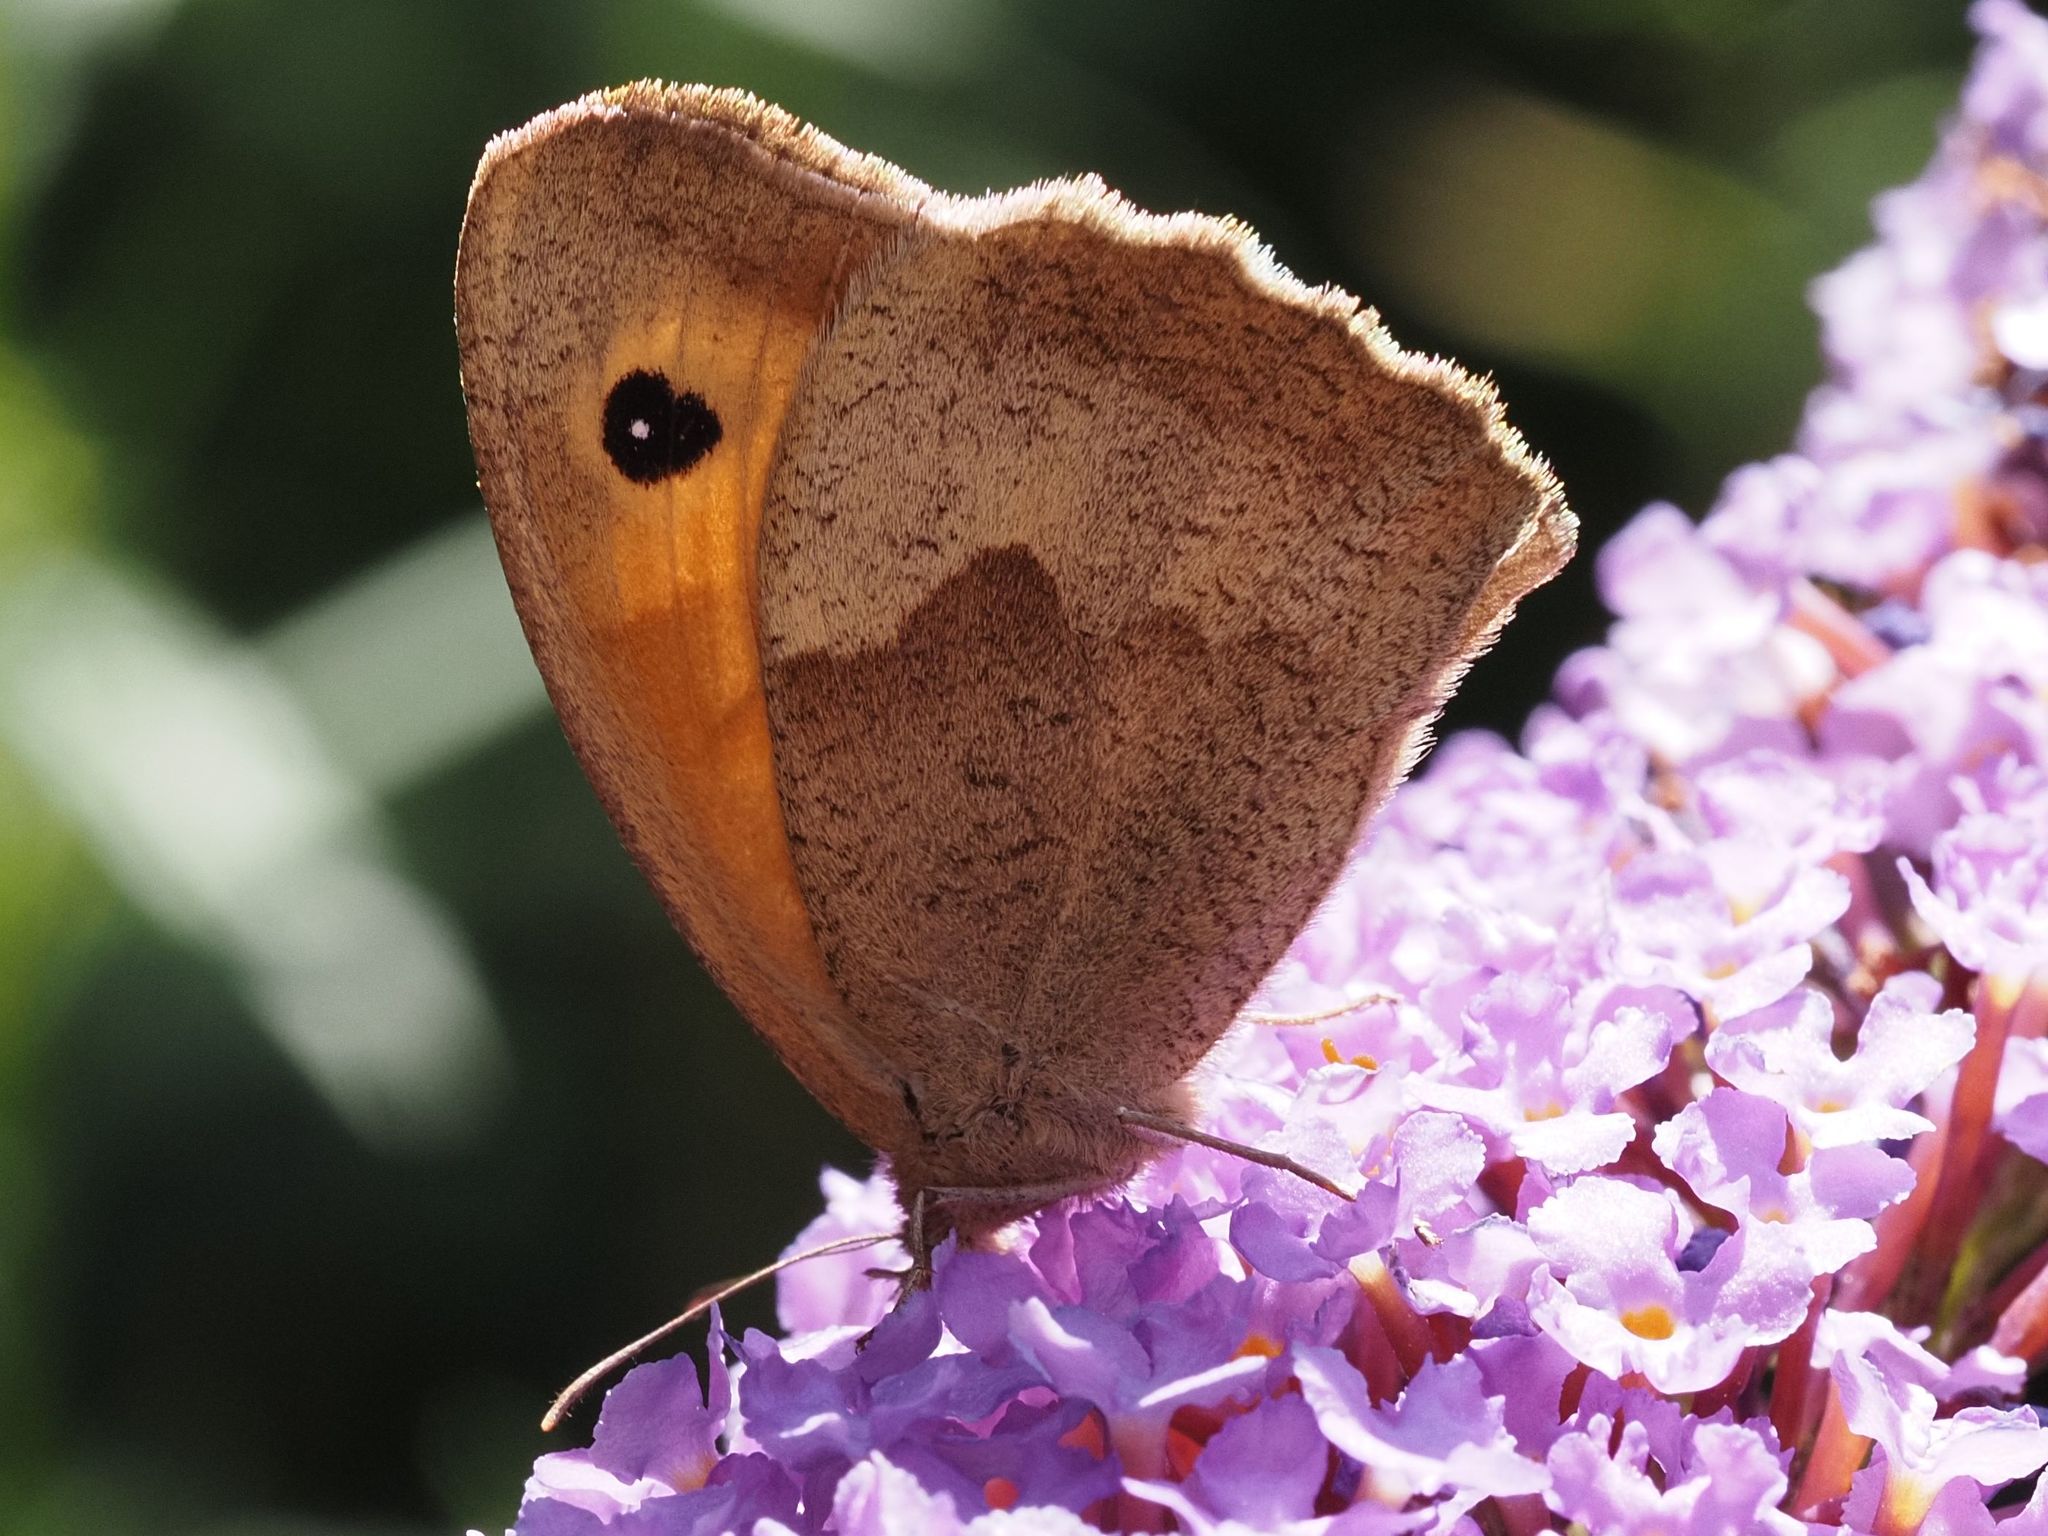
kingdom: Animalia
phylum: Arthropoda
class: Insecta
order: Lepidoptera
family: Nymphalidae
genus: Maniola
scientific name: Maniola jurtina
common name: Meadow brown
